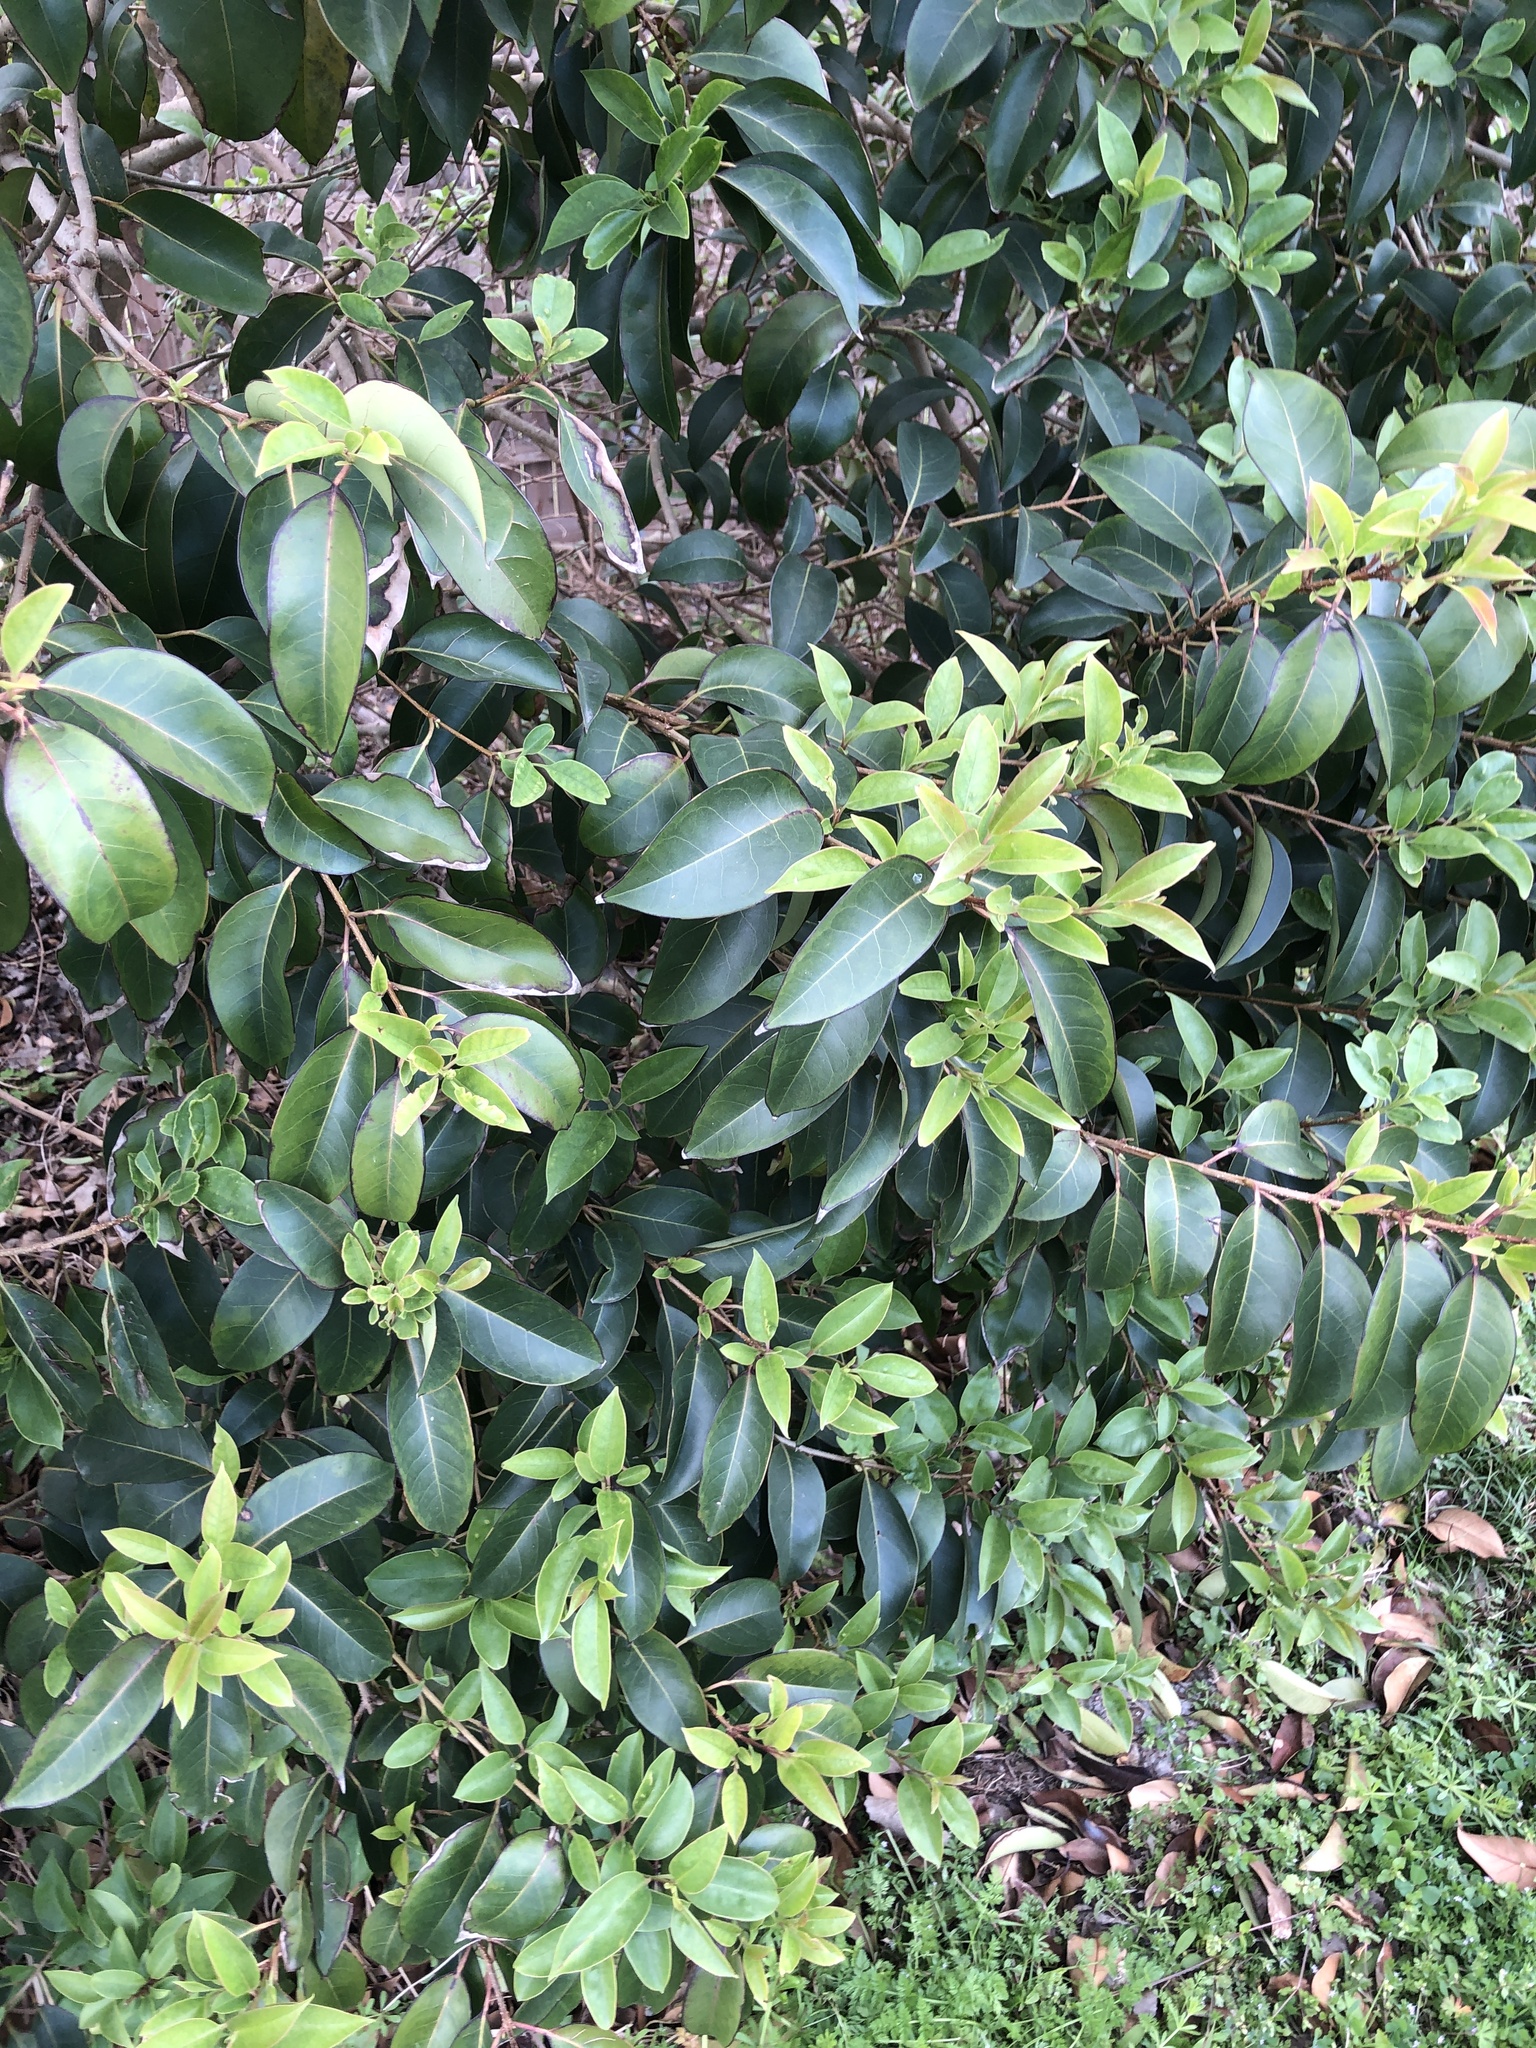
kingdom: Plantae
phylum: Tracheophyta
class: Magnoliopsida
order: Lamiales
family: Oleaceae
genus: Ligustrum
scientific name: Ligustrum lucidum
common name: Glossy privet
